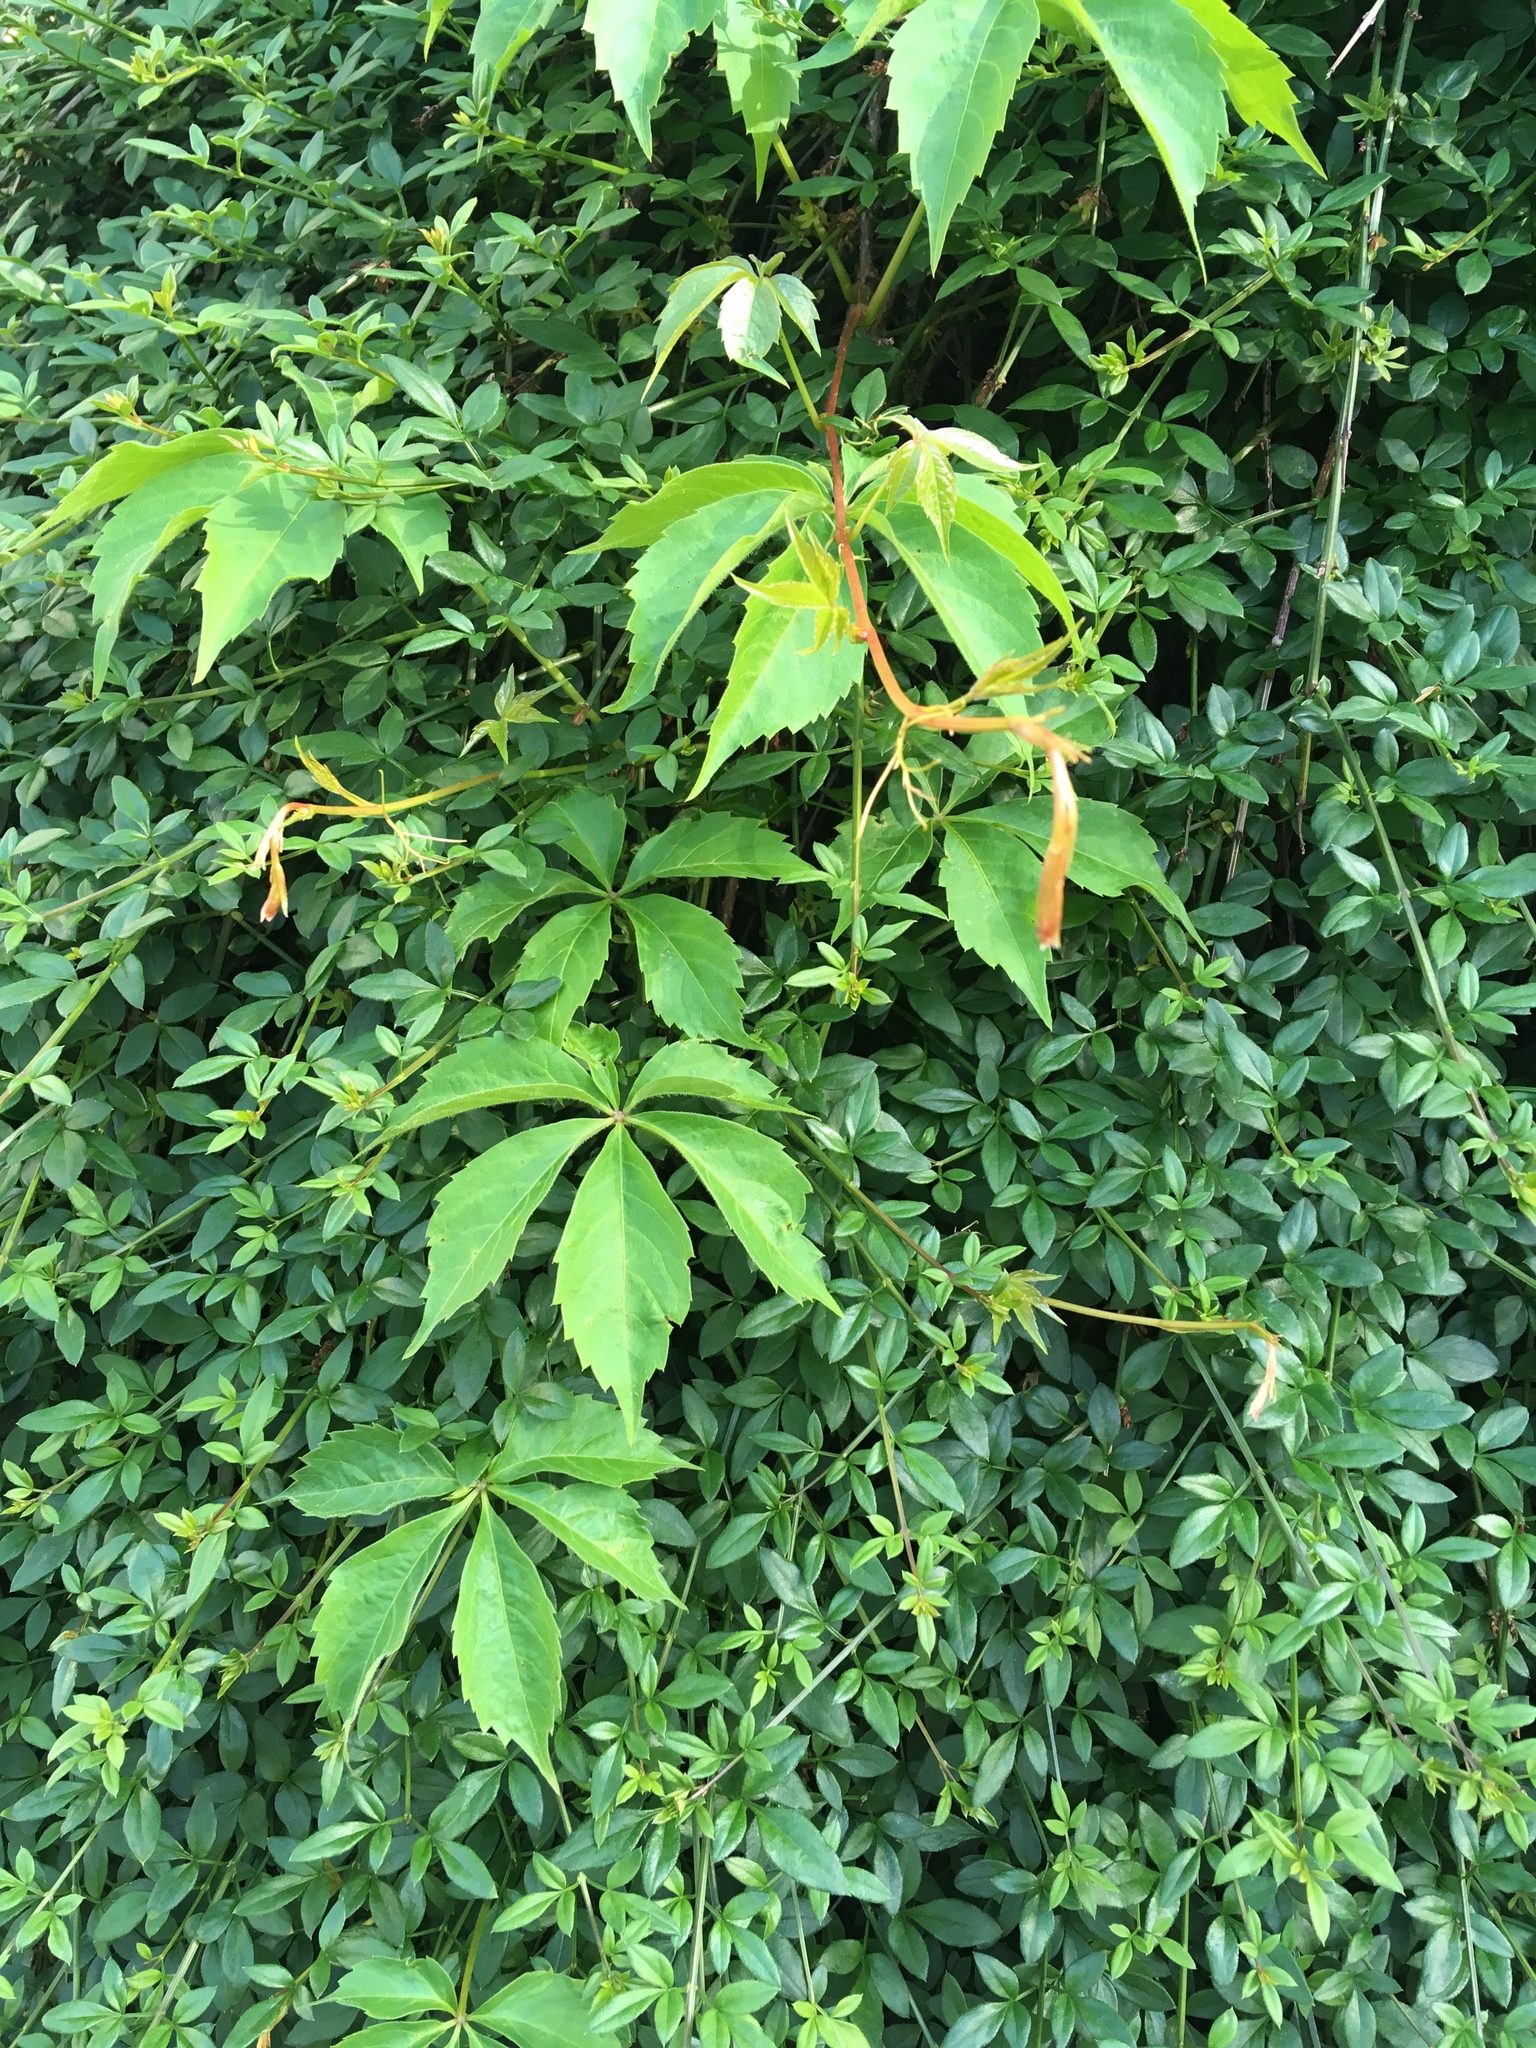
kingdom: Plantae
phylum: Tracheophyta
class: Magnoliopsida
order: Vitales
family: Vitaceae
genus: Parthenocissus
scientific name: Parthenocissus quinquefolia
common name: Virginia-creeper
